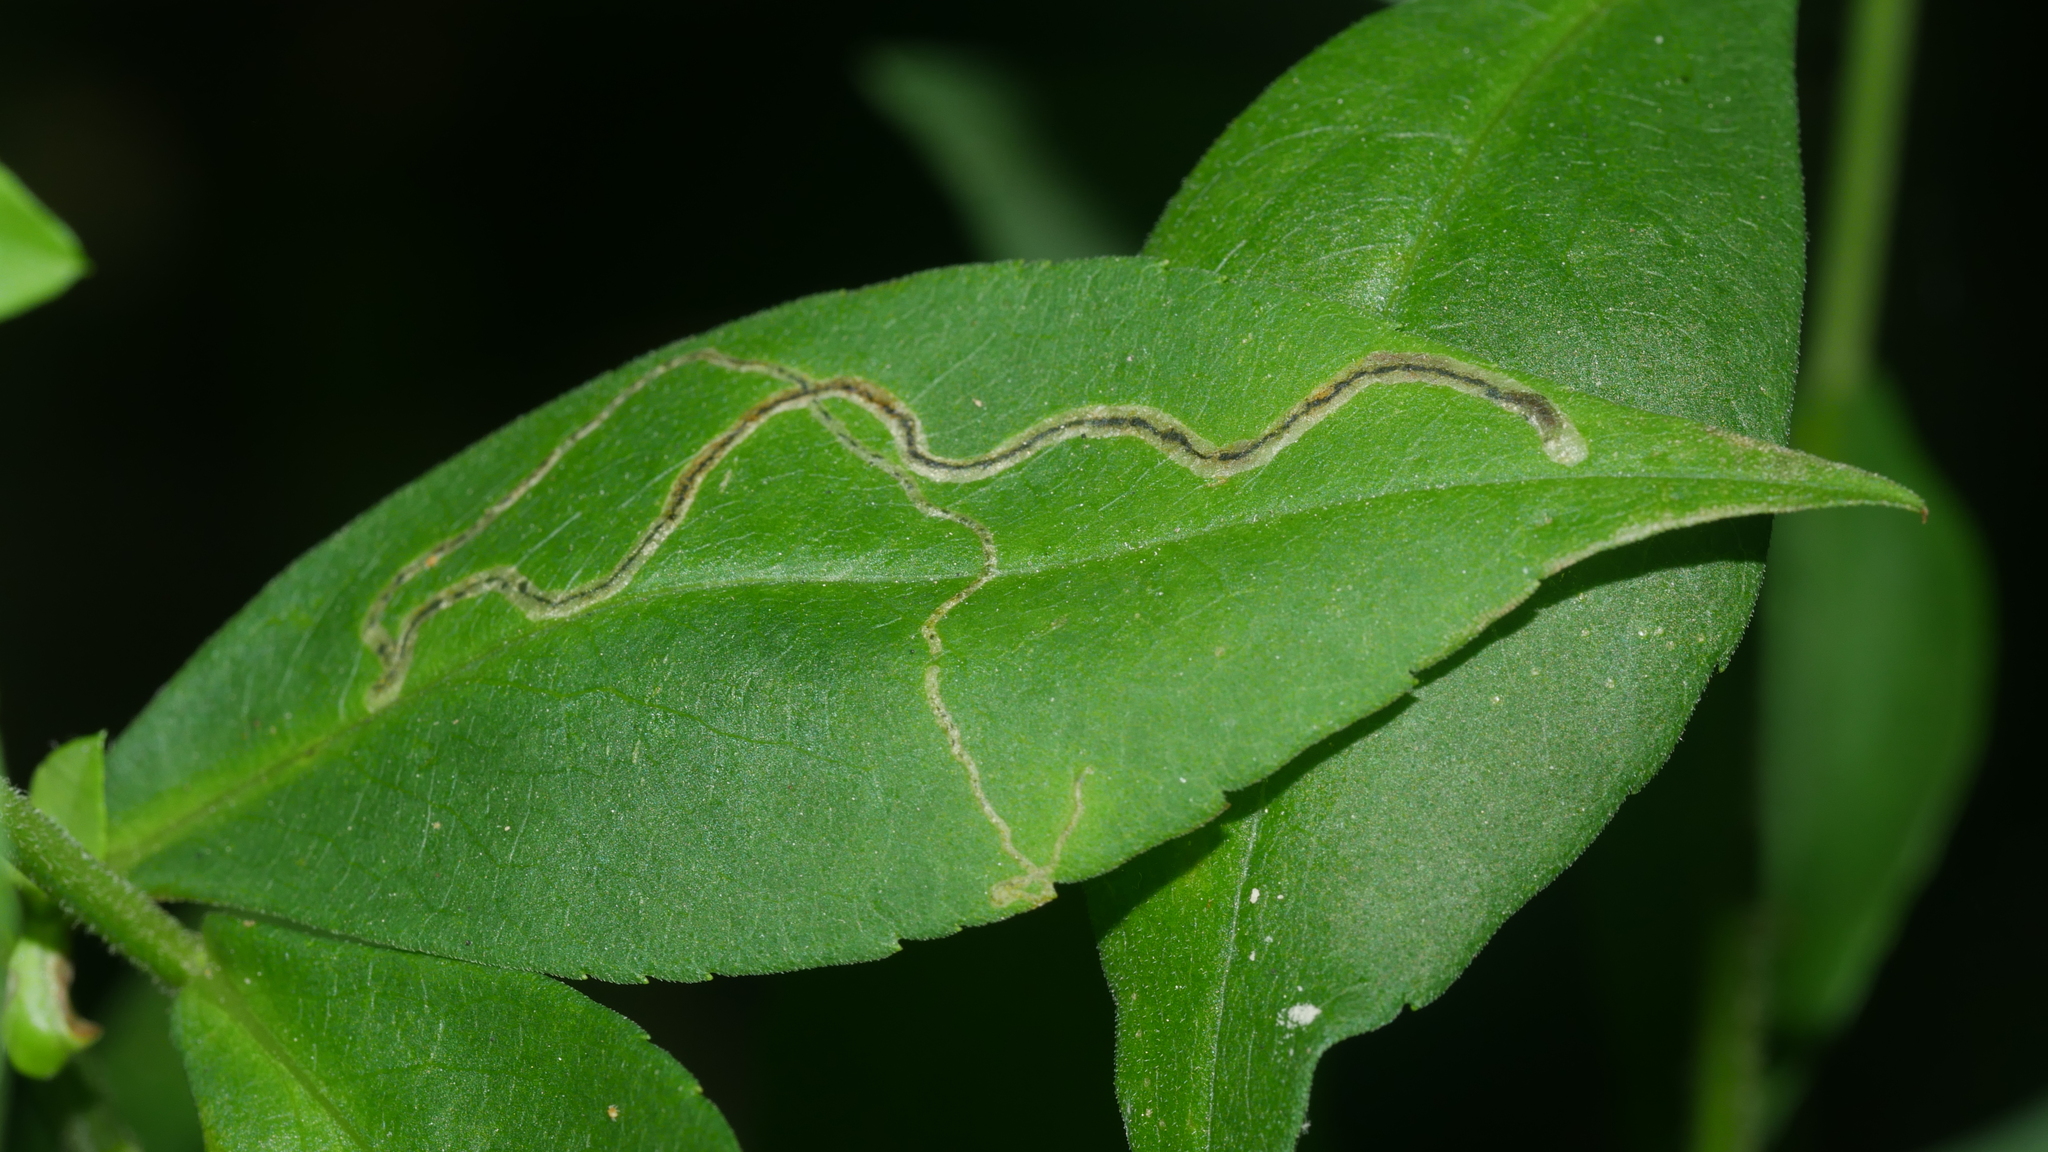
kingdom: Animalia
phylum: Arthropoda
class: Insecta
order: Diptera
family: Agromyzidae
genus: Liriomyza
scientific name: Liriomyza eupatorii
